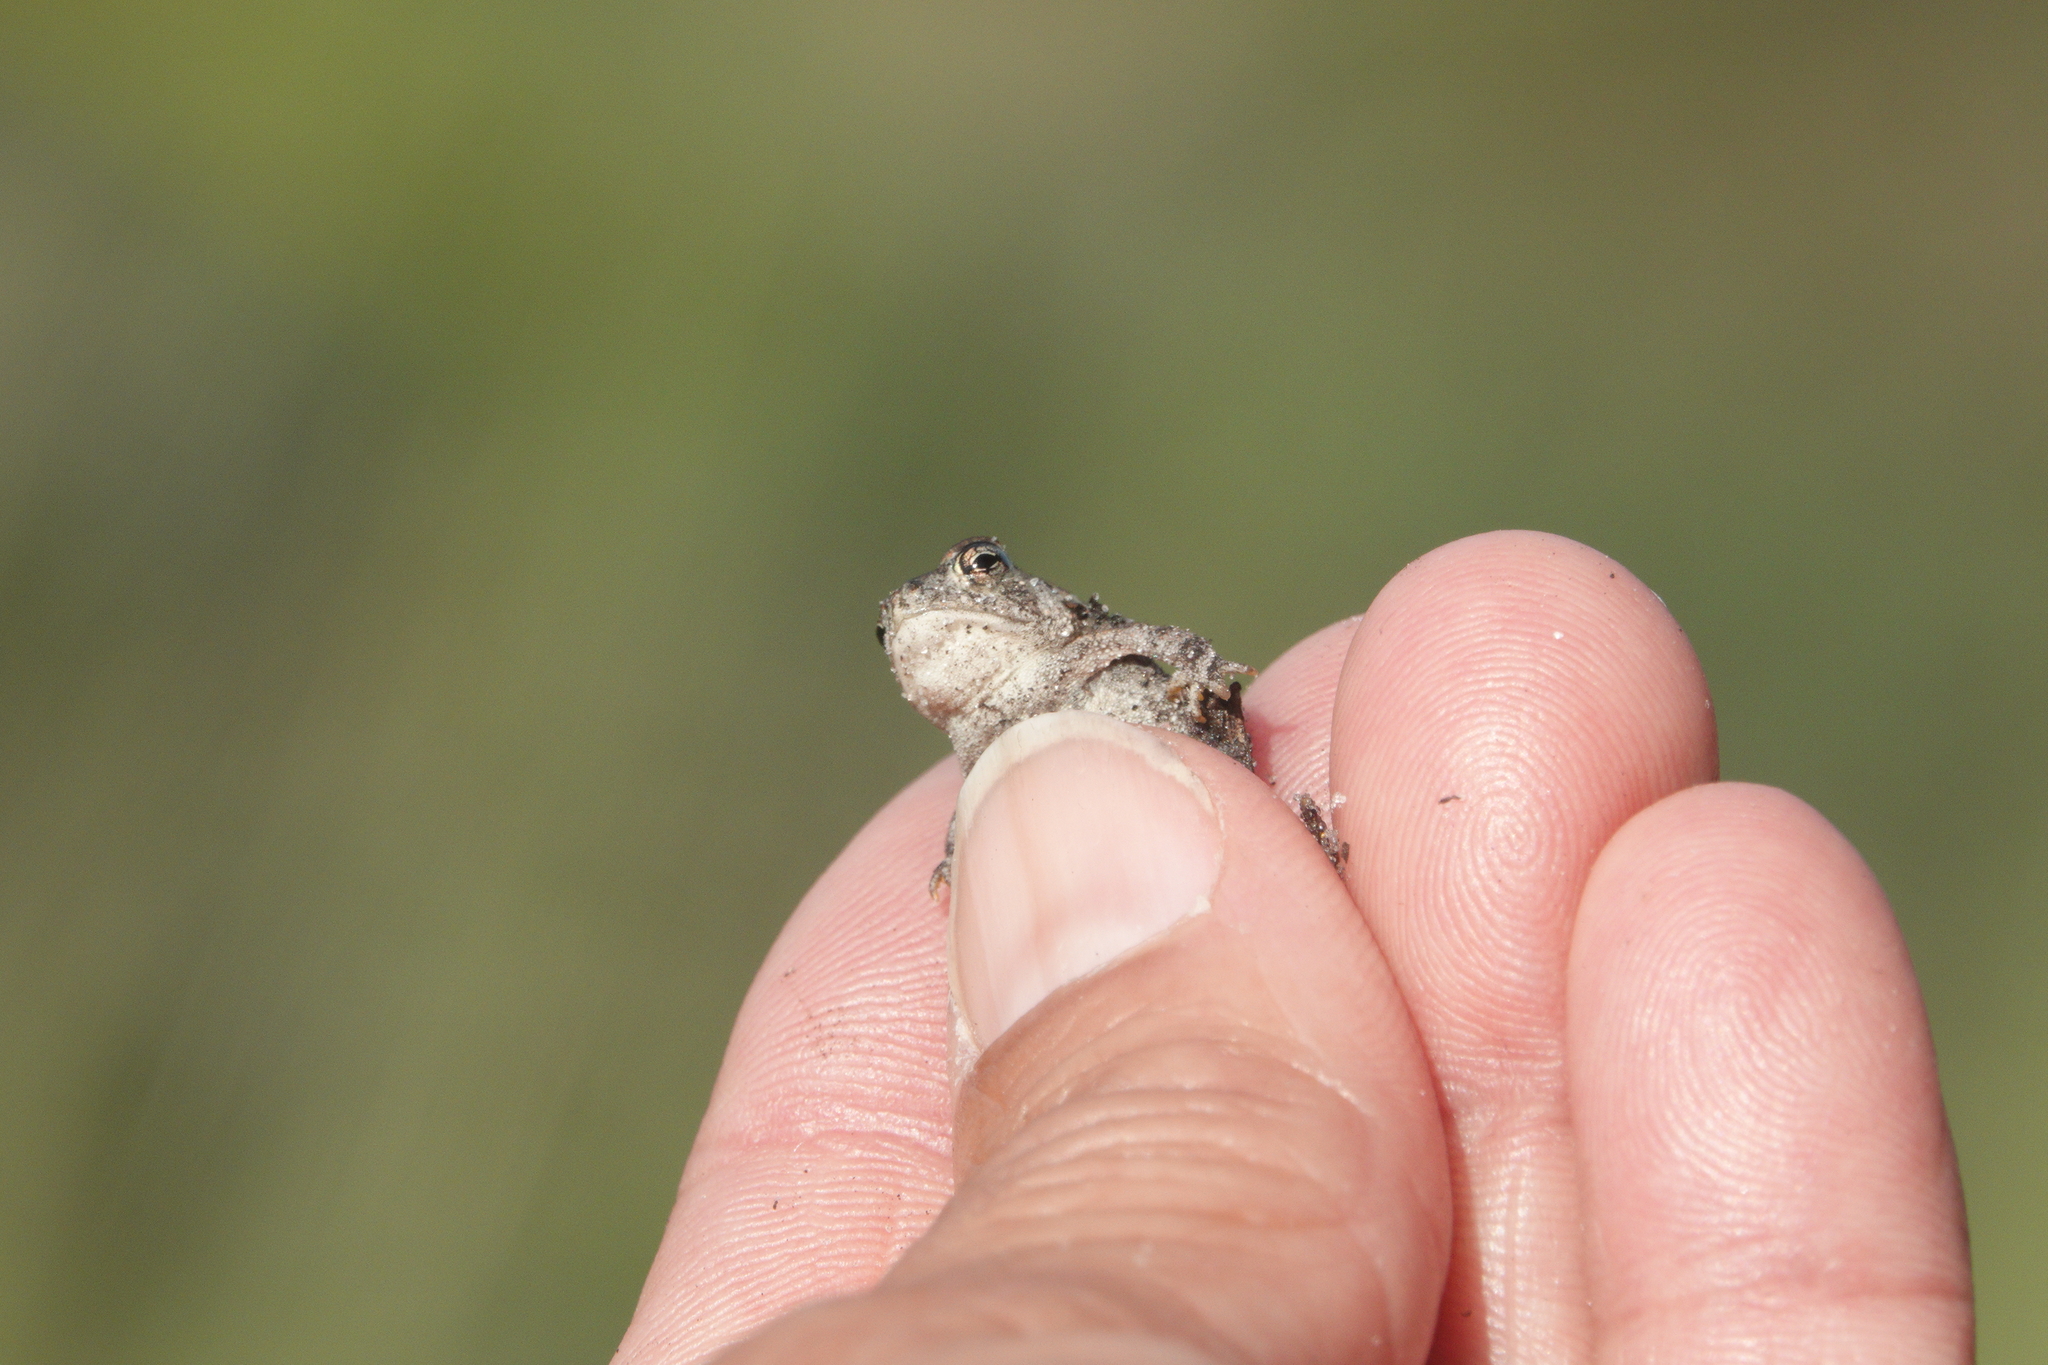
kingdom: Animalia
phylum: Chordata
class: Amphibia
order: Anura
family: Bufonidae
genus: Anaxyrus
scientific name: Anaxyrus terrestris
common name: Southern toad
